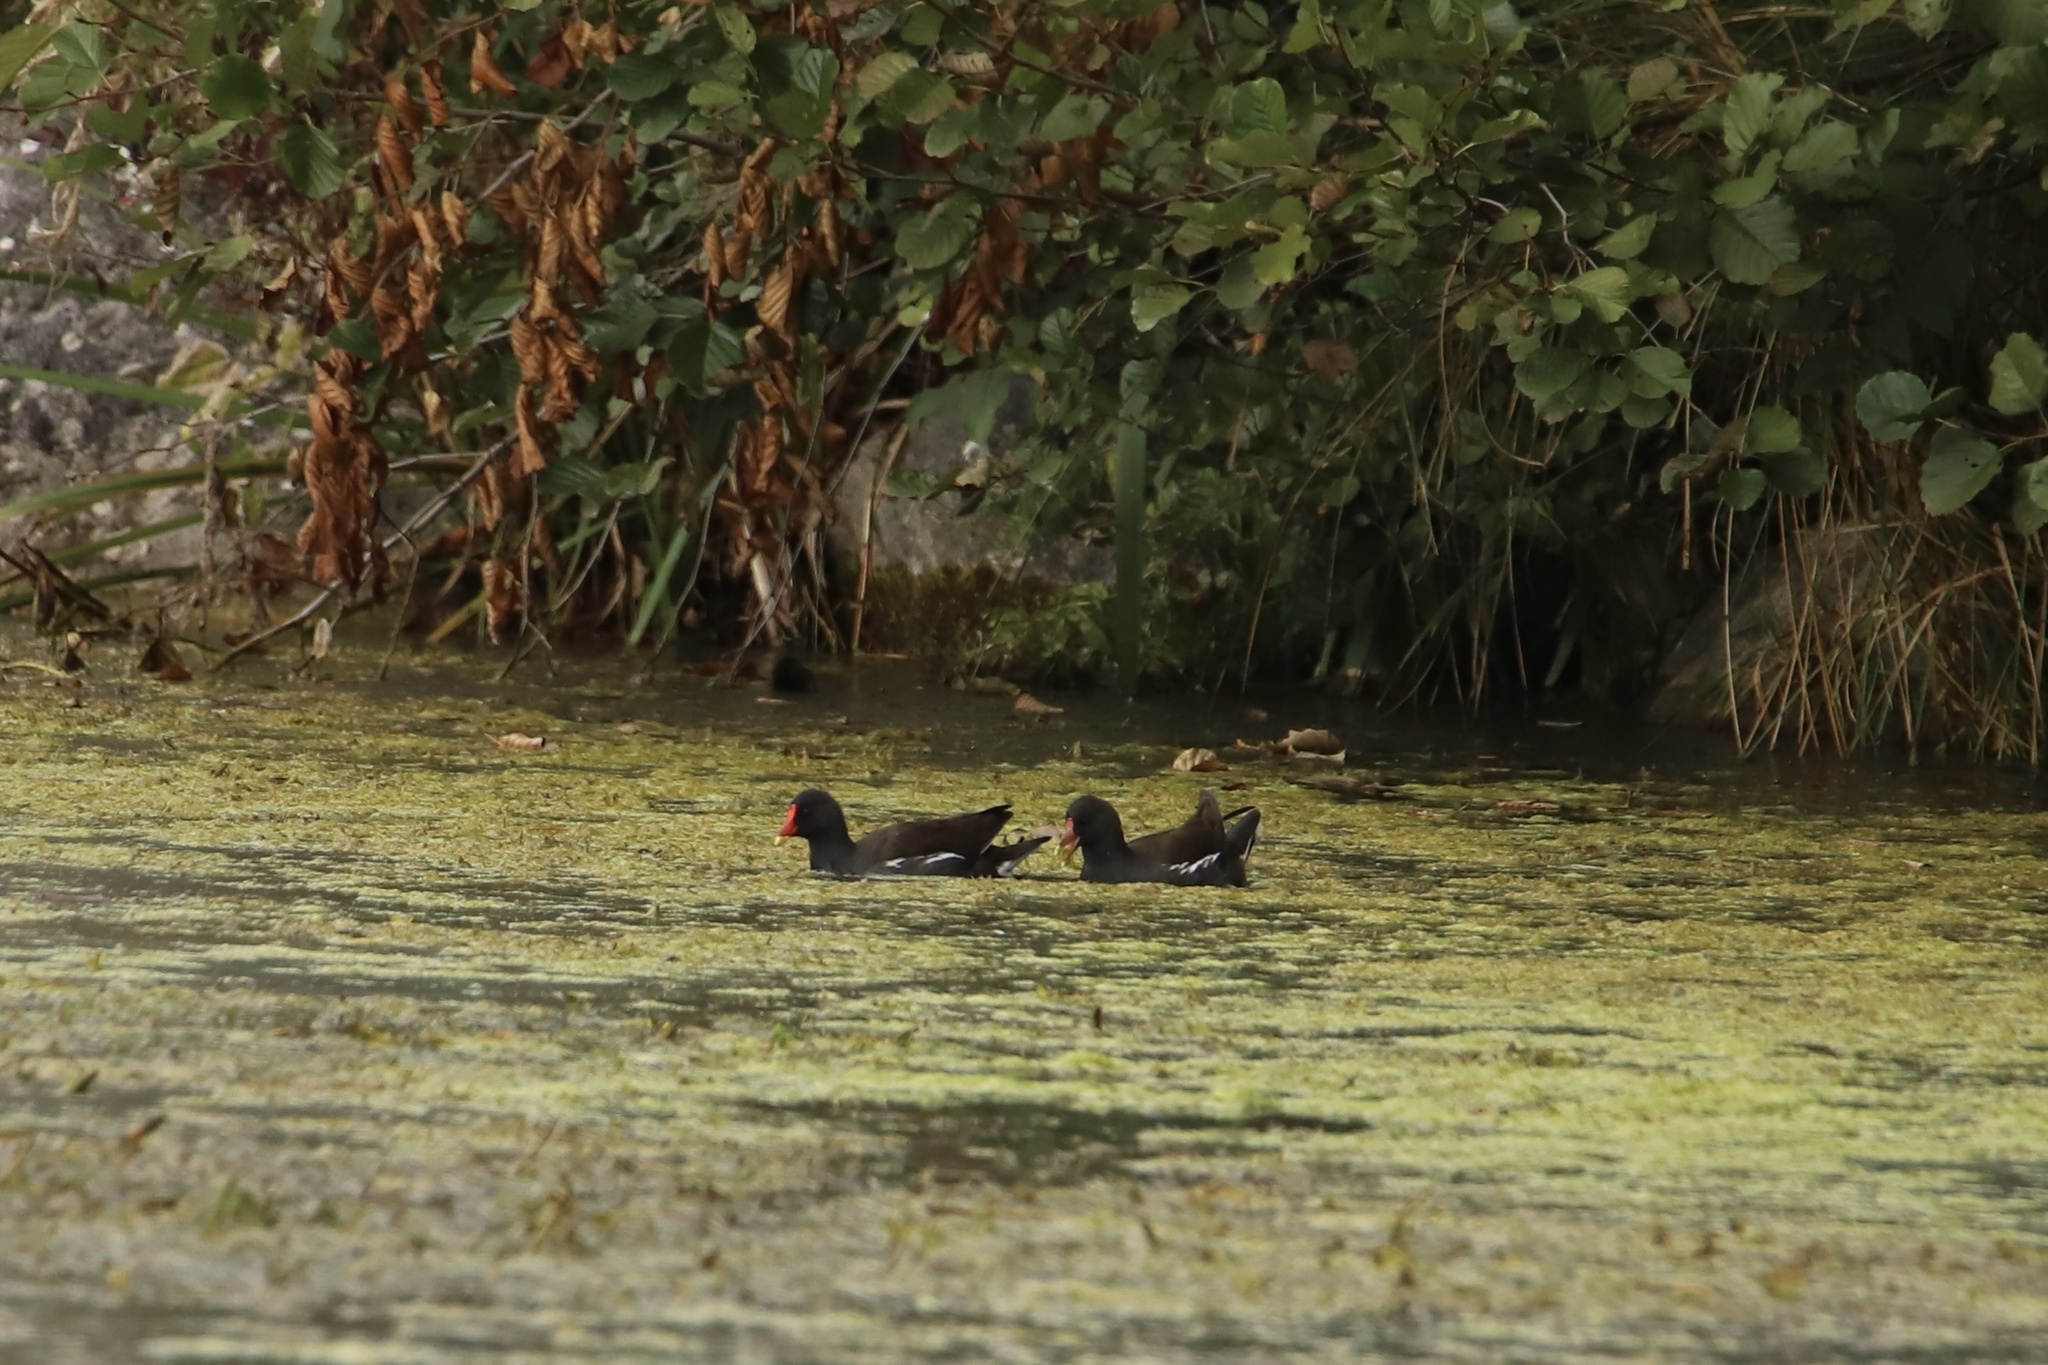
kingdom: Animalia
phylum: Chordata
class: Aves
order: Gruiformes
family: Rallidae
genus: Gallinula
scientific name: Gallinula chloropus
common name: Common moorhen
